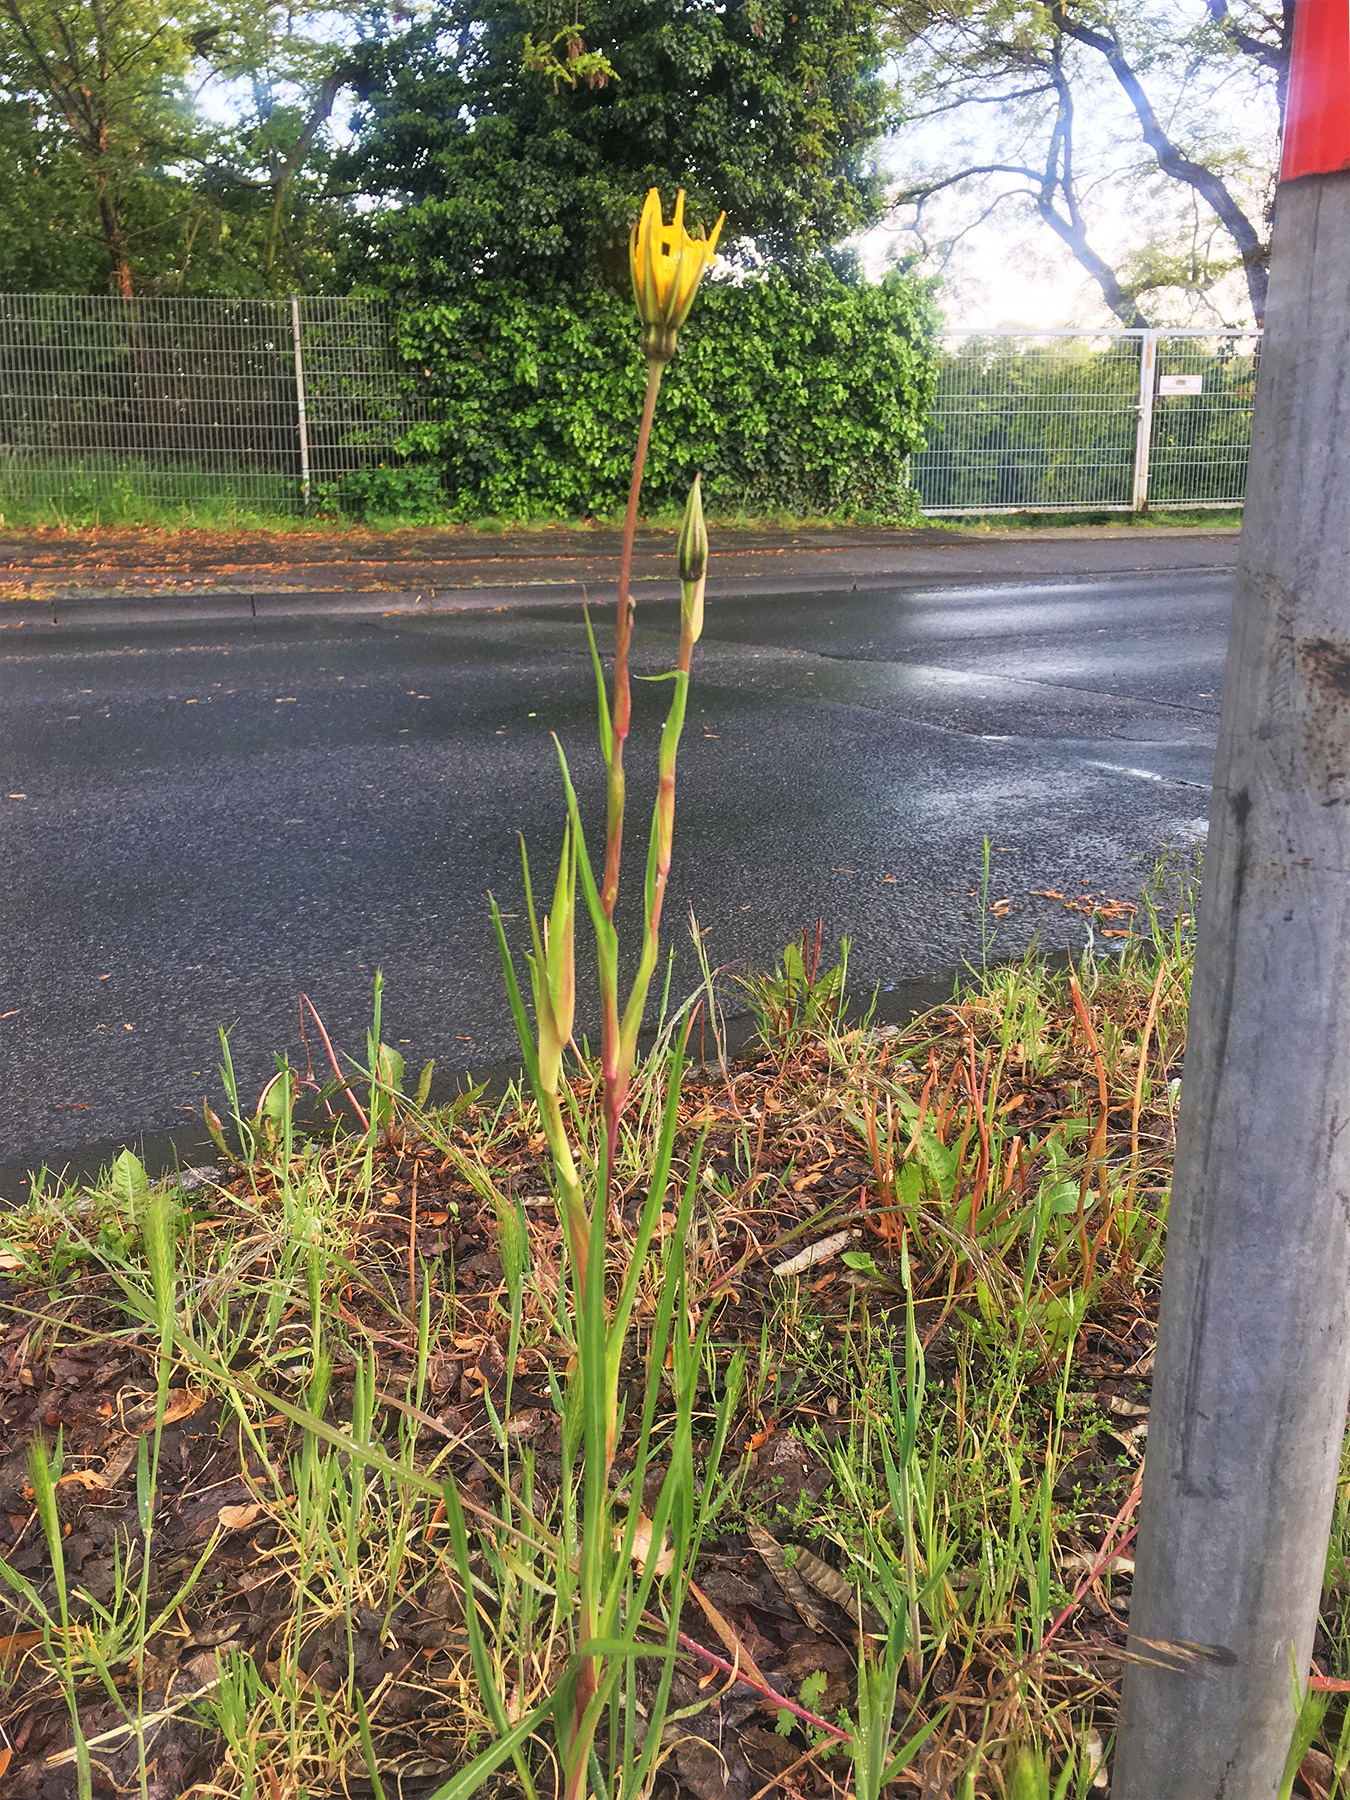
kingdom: Plantae
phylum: Tracheophyta
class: Magnoliopsida
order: Asterales
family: Asteraceae
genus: Tragopogon
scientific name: Tragopogon pratensis
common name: Goat's-beard
